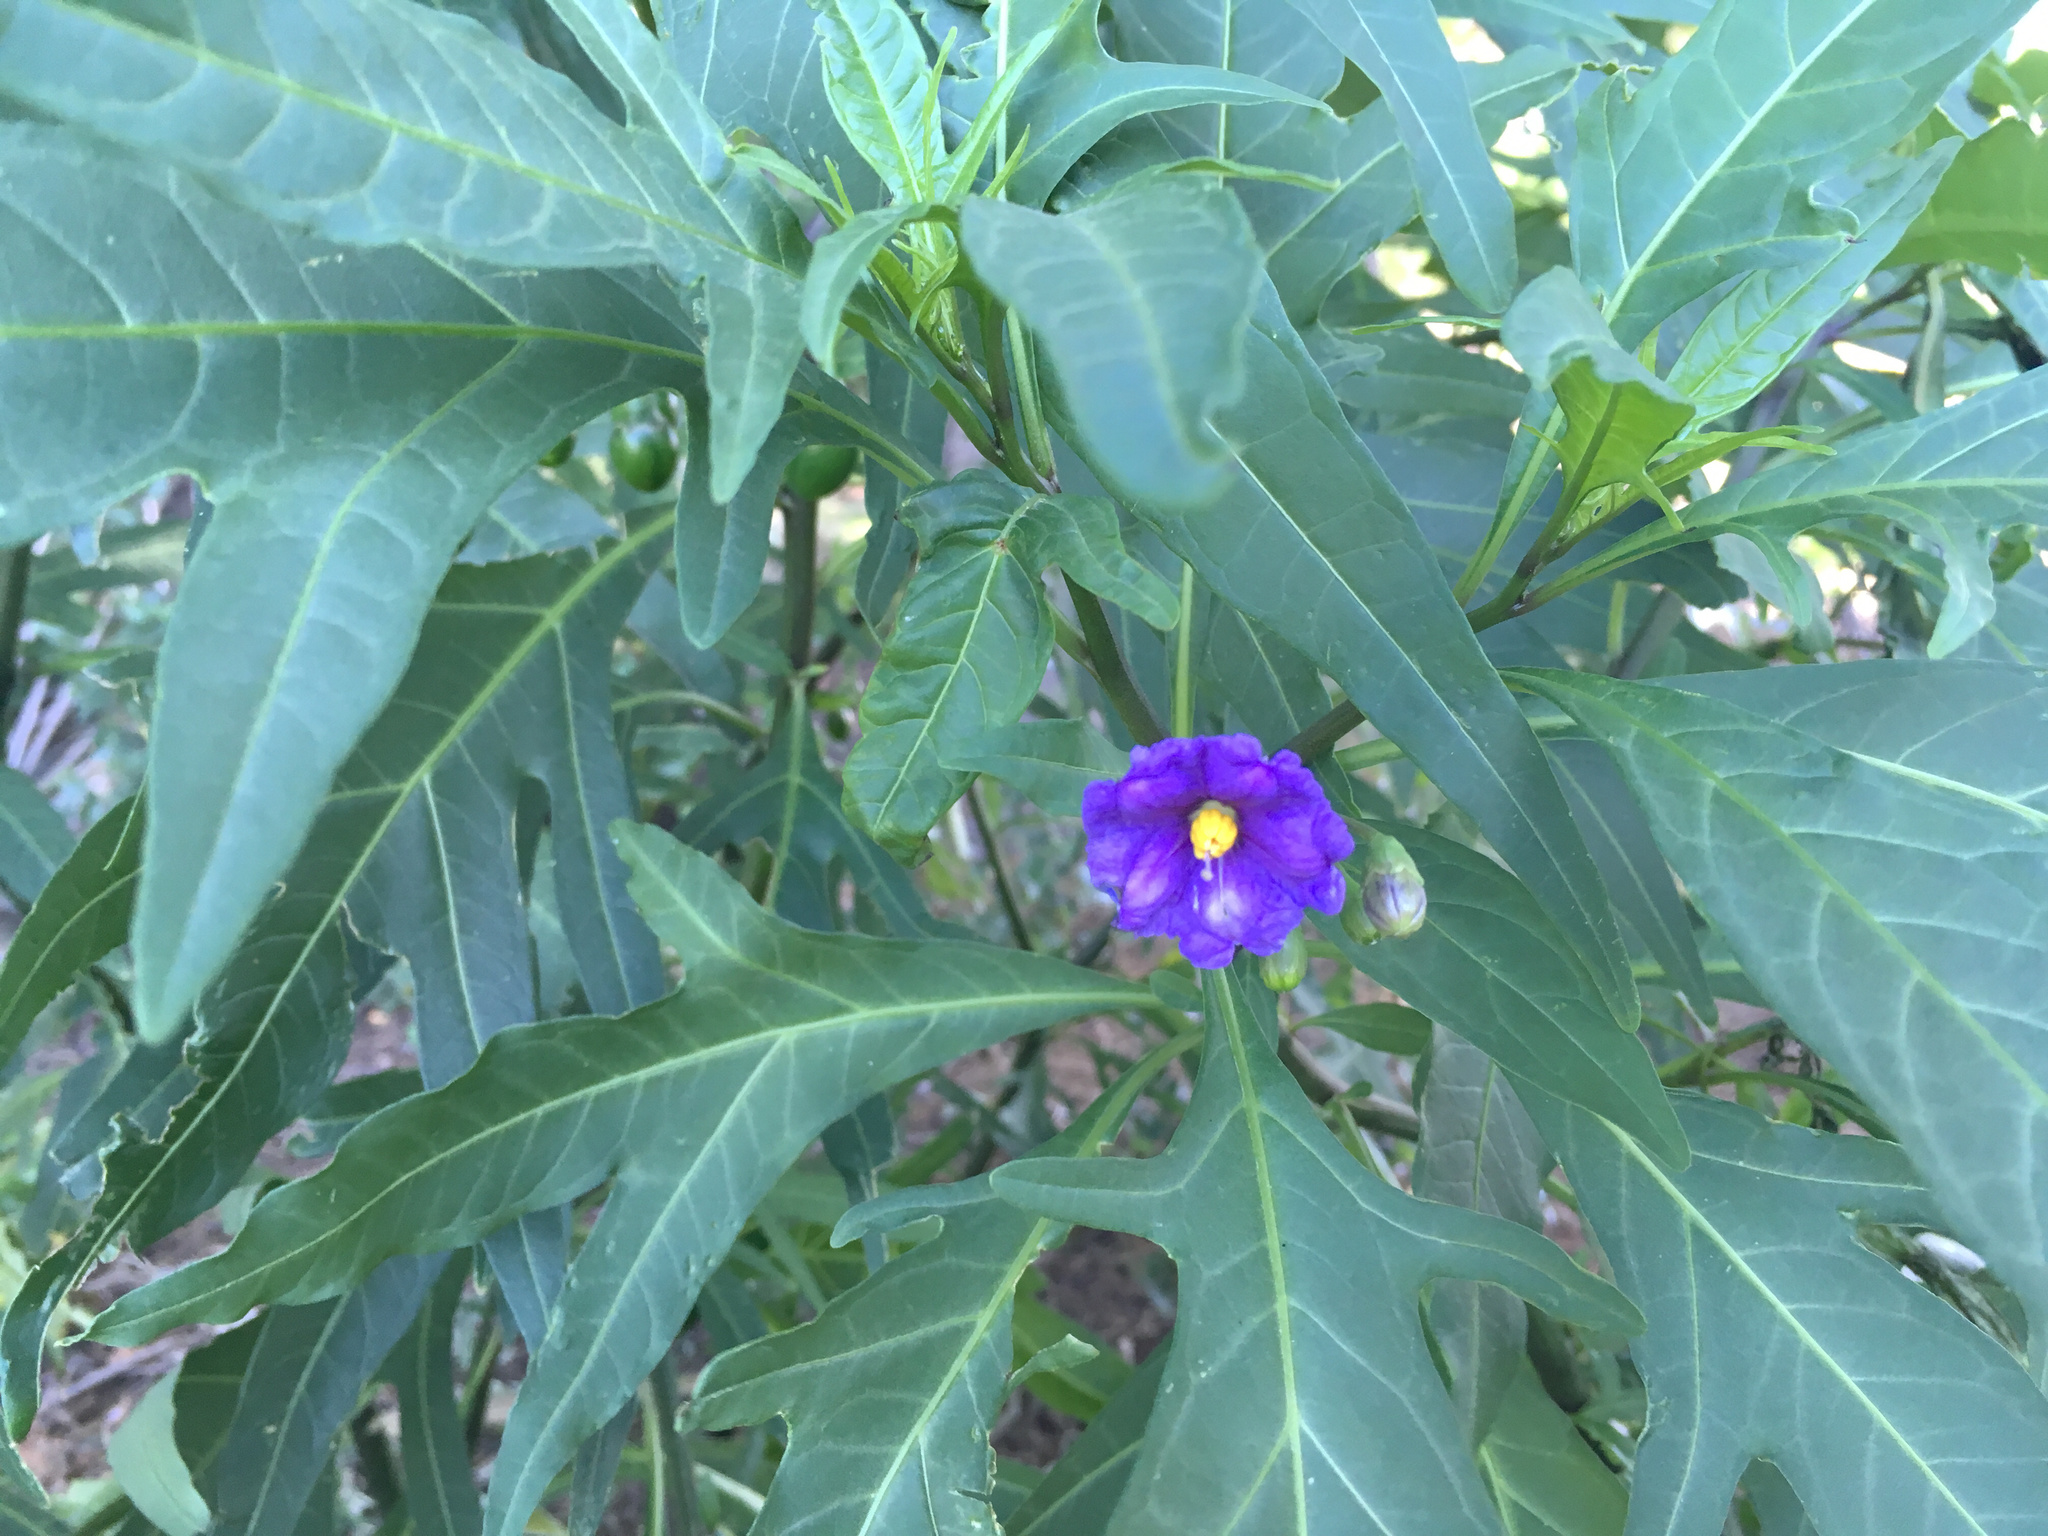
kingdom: Plantae
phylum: Tracheophyta
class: Magnoliopsida
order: Solanales
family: Solanaceae
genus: Solanum
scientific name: Solanum laciniatum
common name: Kangaroo-apple
